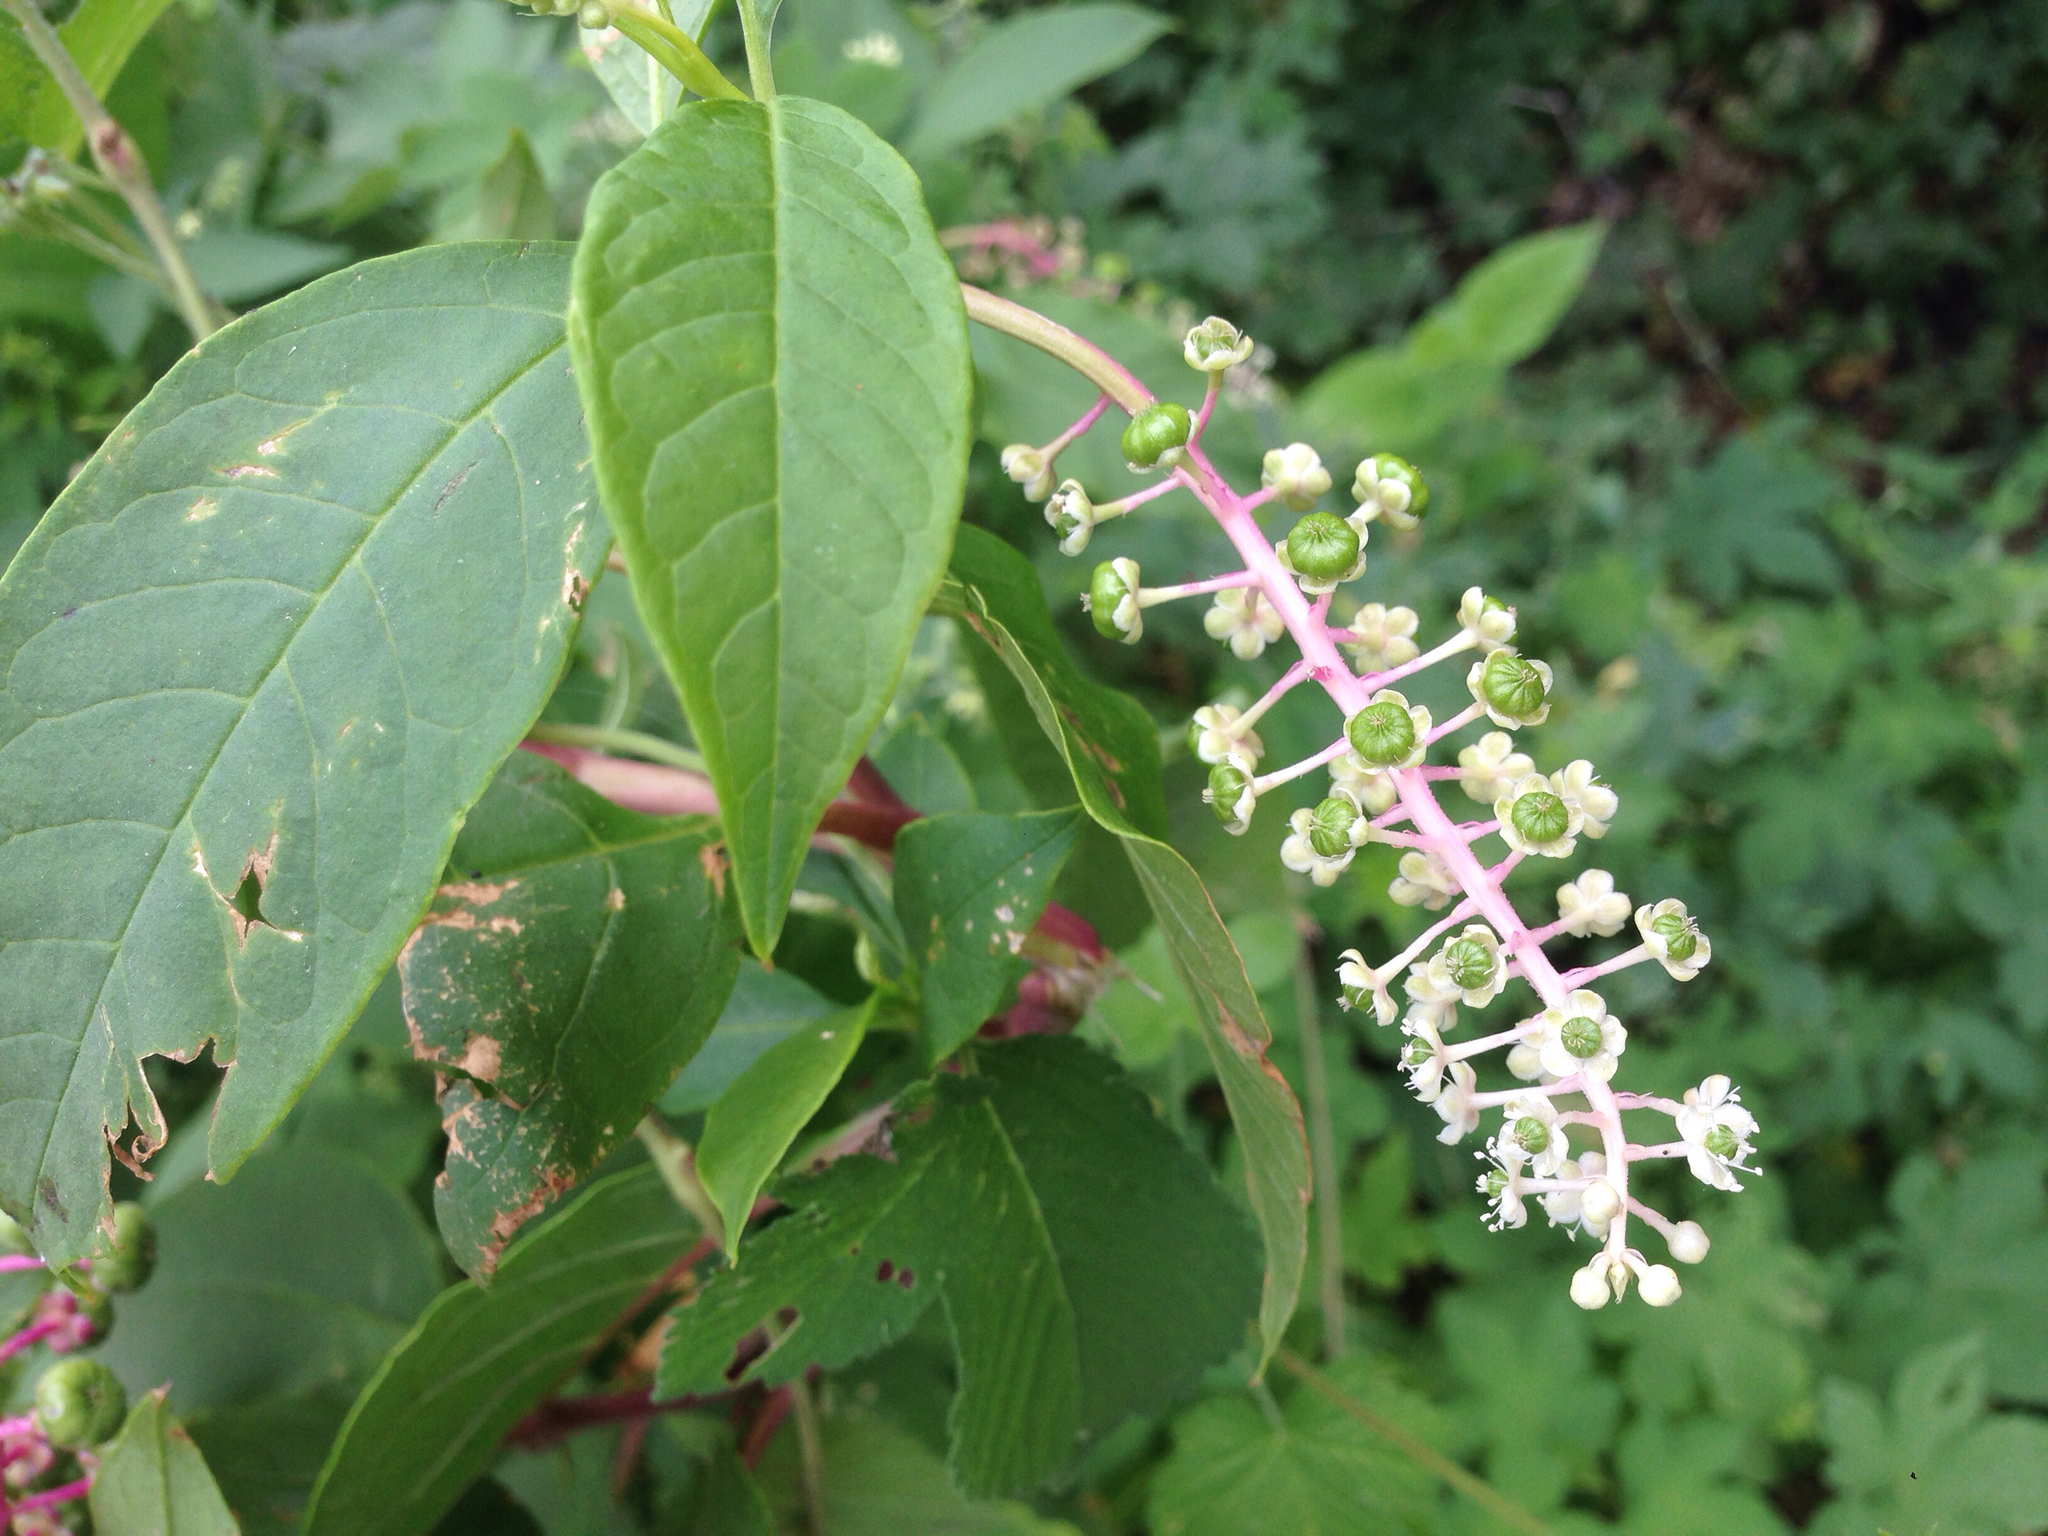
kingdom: Plantae
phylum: Tracheophyta
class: Magnoliopsida
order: Caryophyllales
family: Phytolaccaceae
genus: Phytolacca
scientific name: Phytolacca americana
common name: American pokeweed
